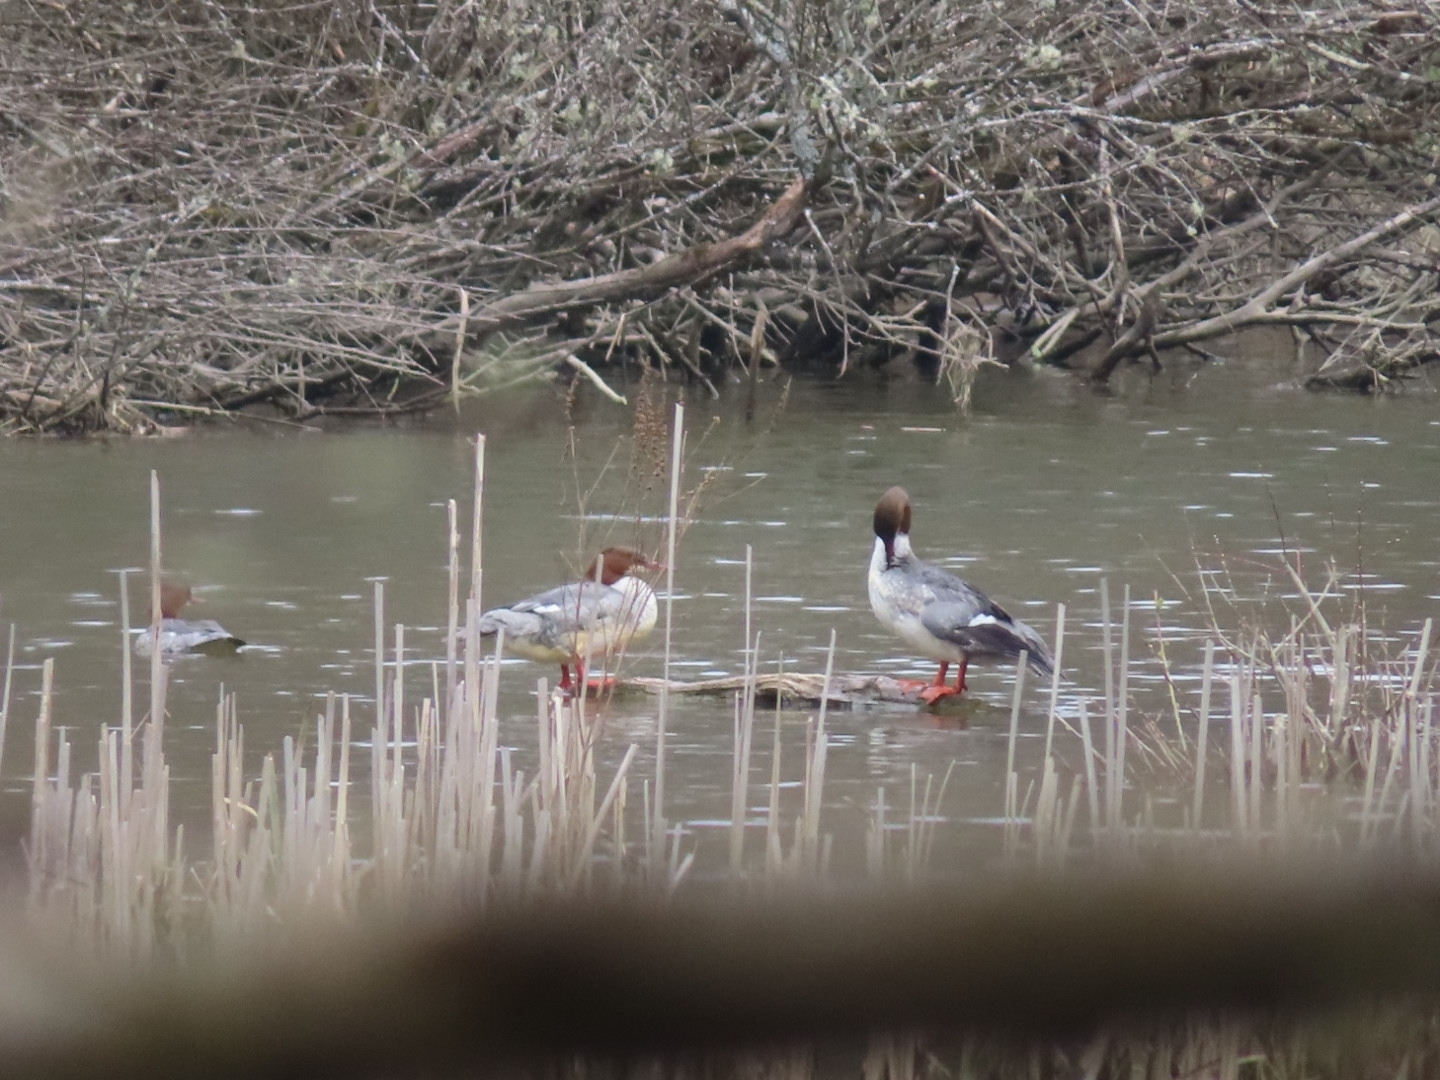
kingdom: Animalia
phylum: Chordata
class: Aves
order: Anseriformes
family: Anatidae
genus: Mergus
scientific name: Mergus merganser
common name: Common merganser
